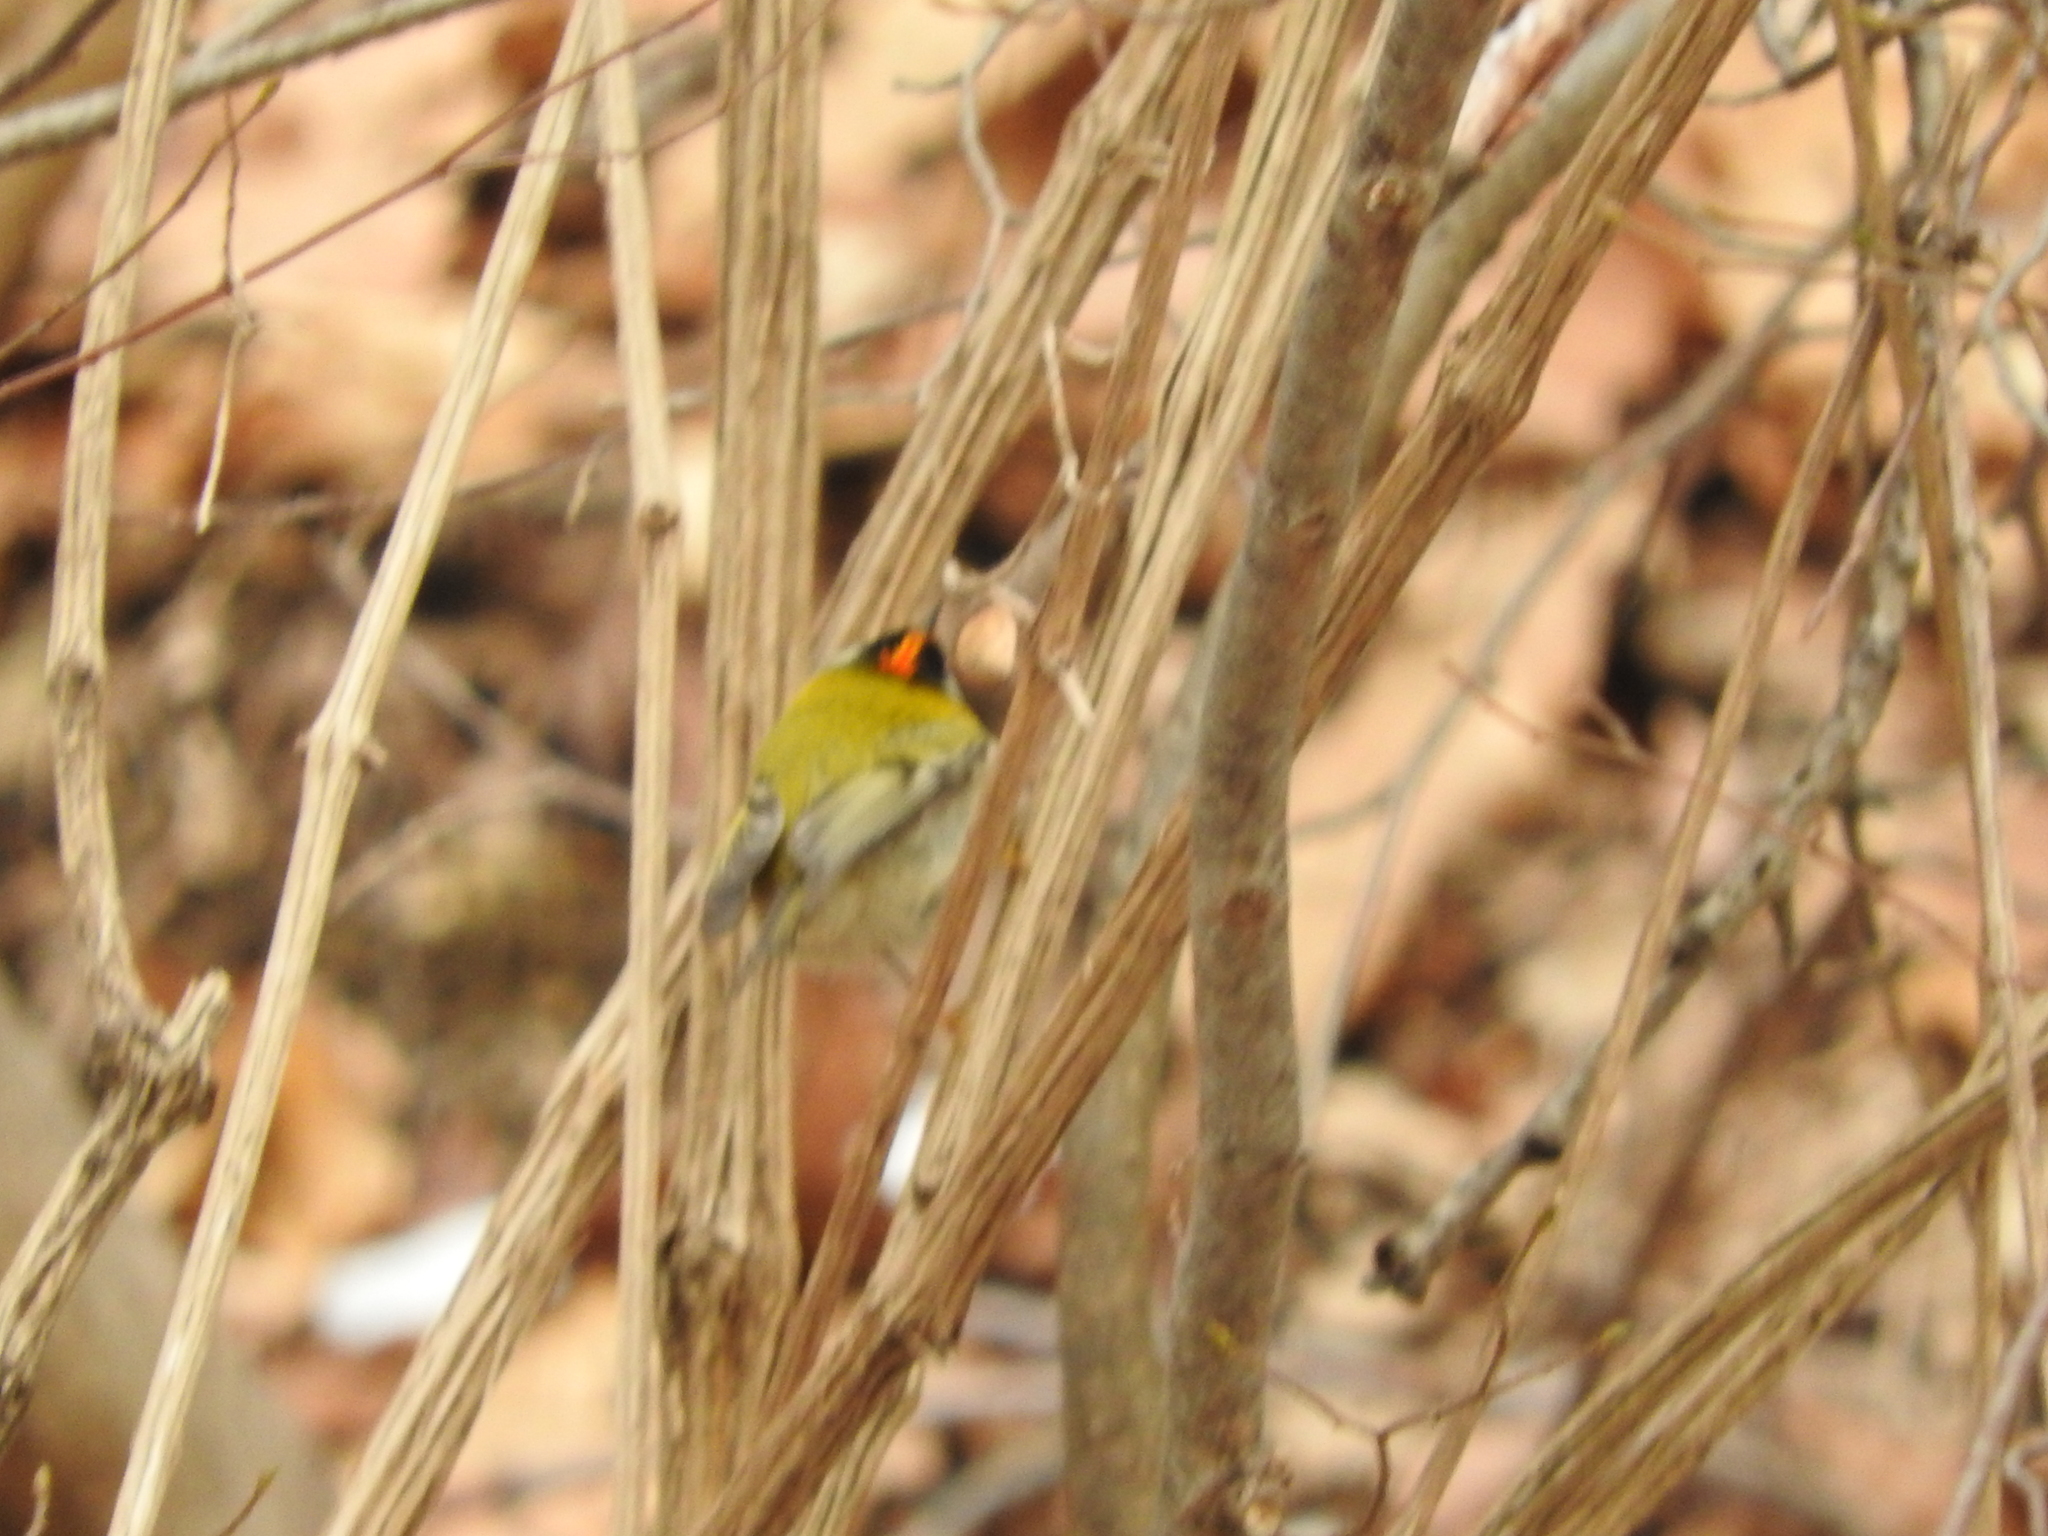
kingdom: Animalia
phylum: Chordata
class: Aves
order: Passeriformes
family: Regulidae
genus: Regulus
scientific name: Regulus ignicapilla
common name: Firecrest
